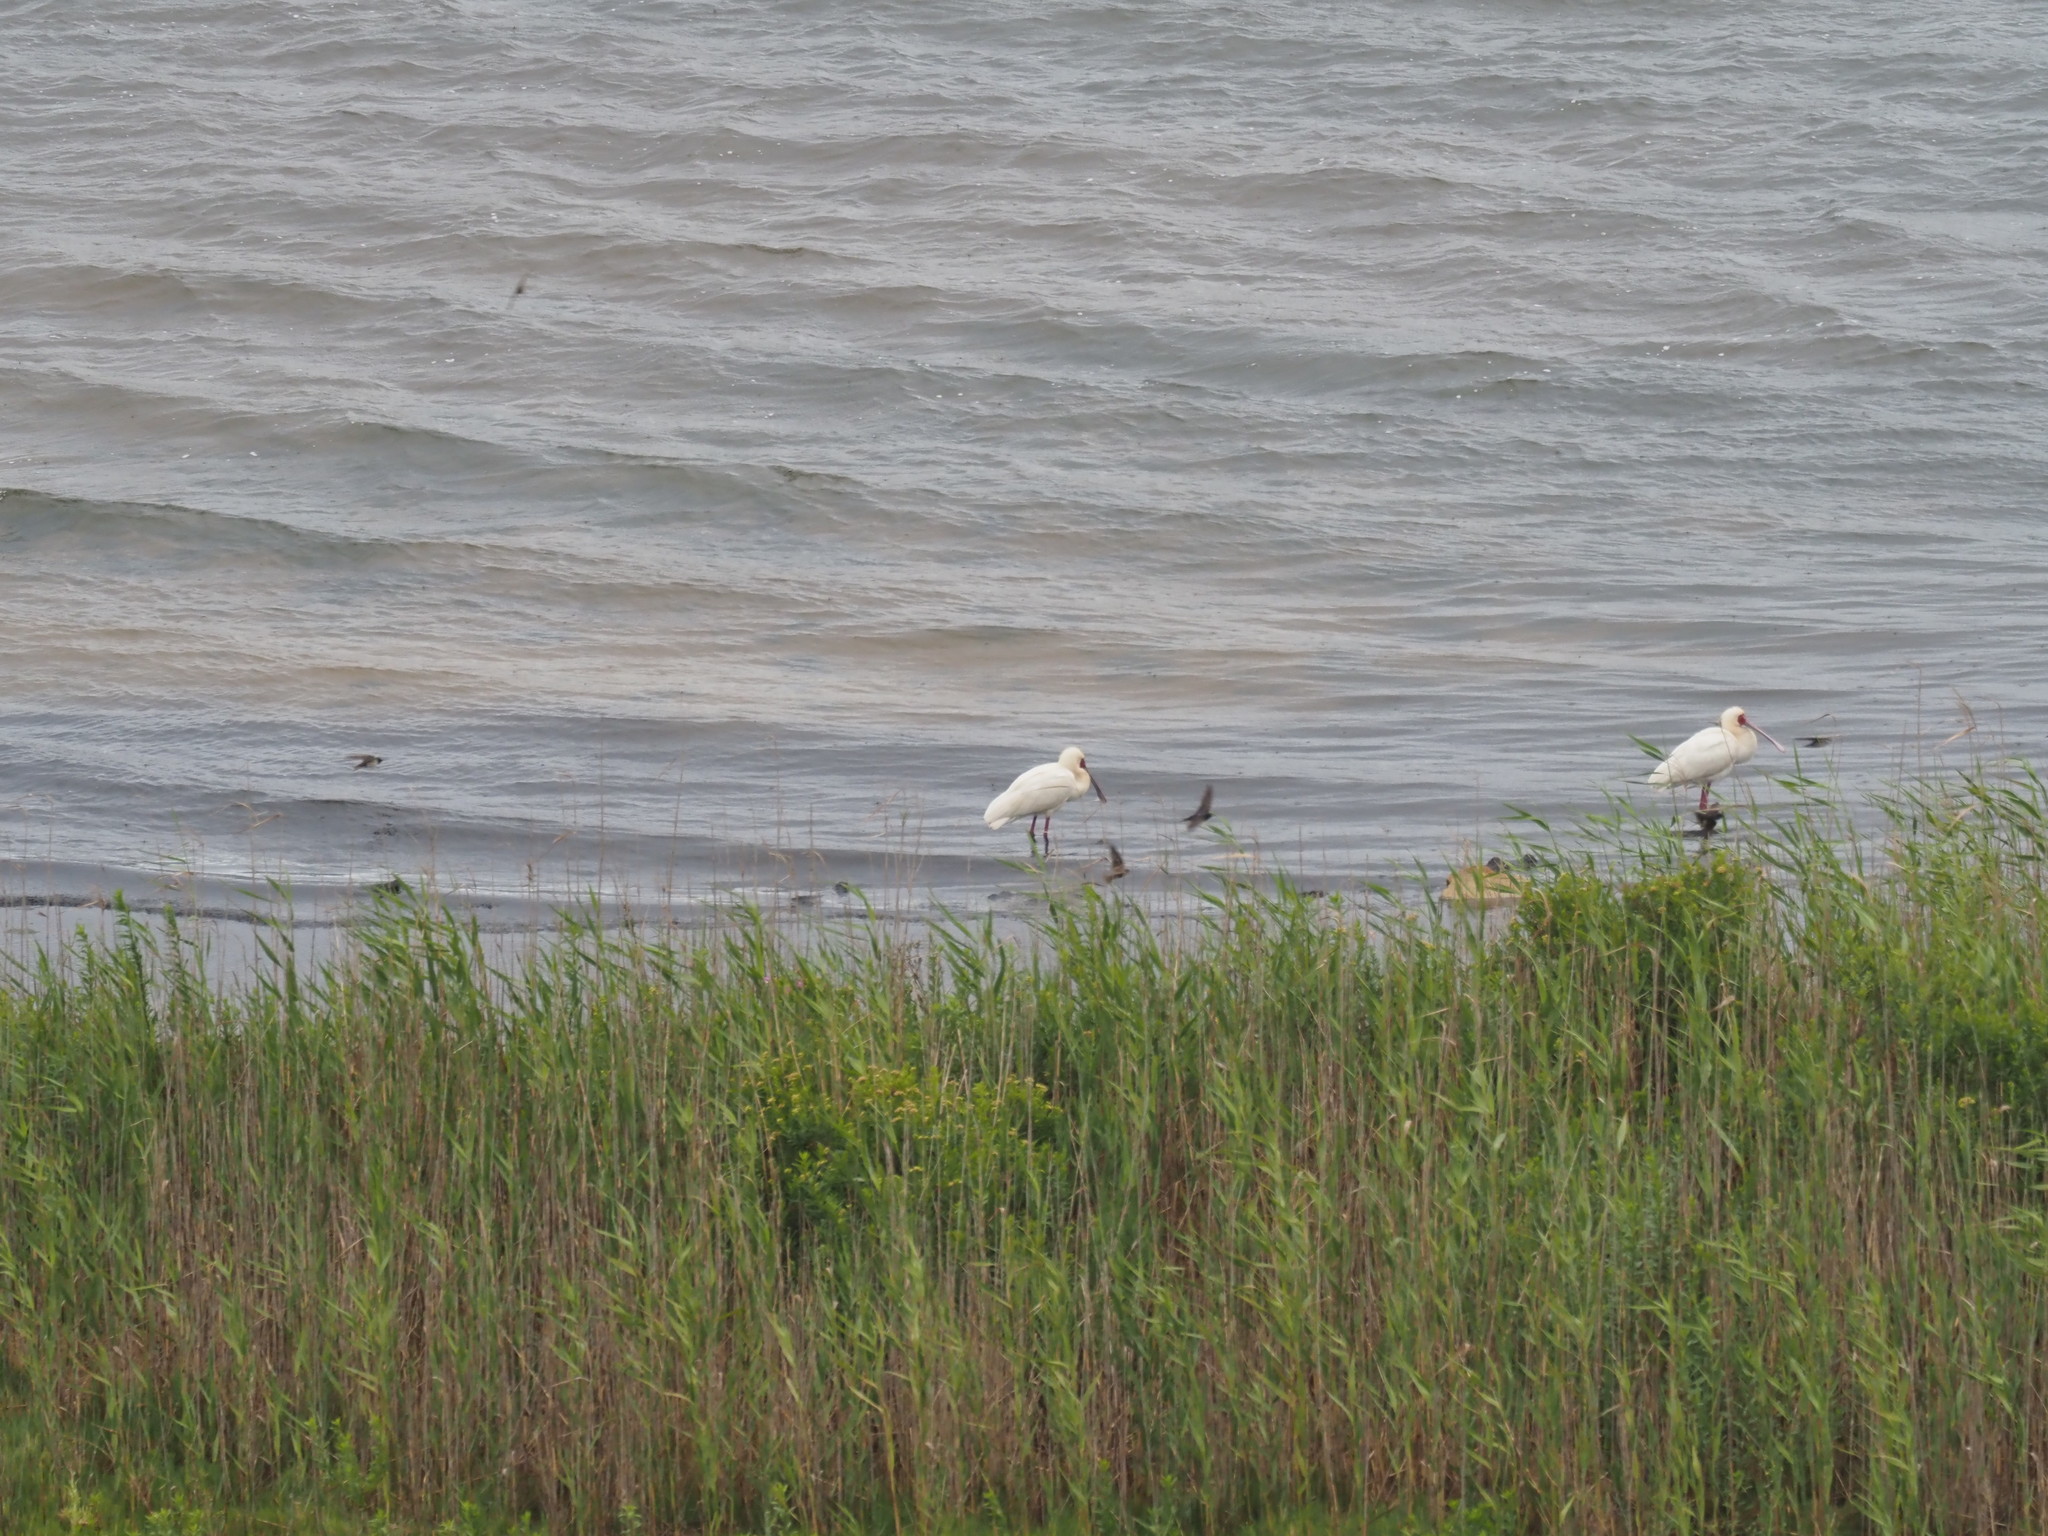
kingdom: Animalia
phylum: Chordata
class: Aves
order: Pelecaniformes
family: Threskiornithidae
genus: Platalea
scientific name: Platalea alba
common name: African spoonbill
